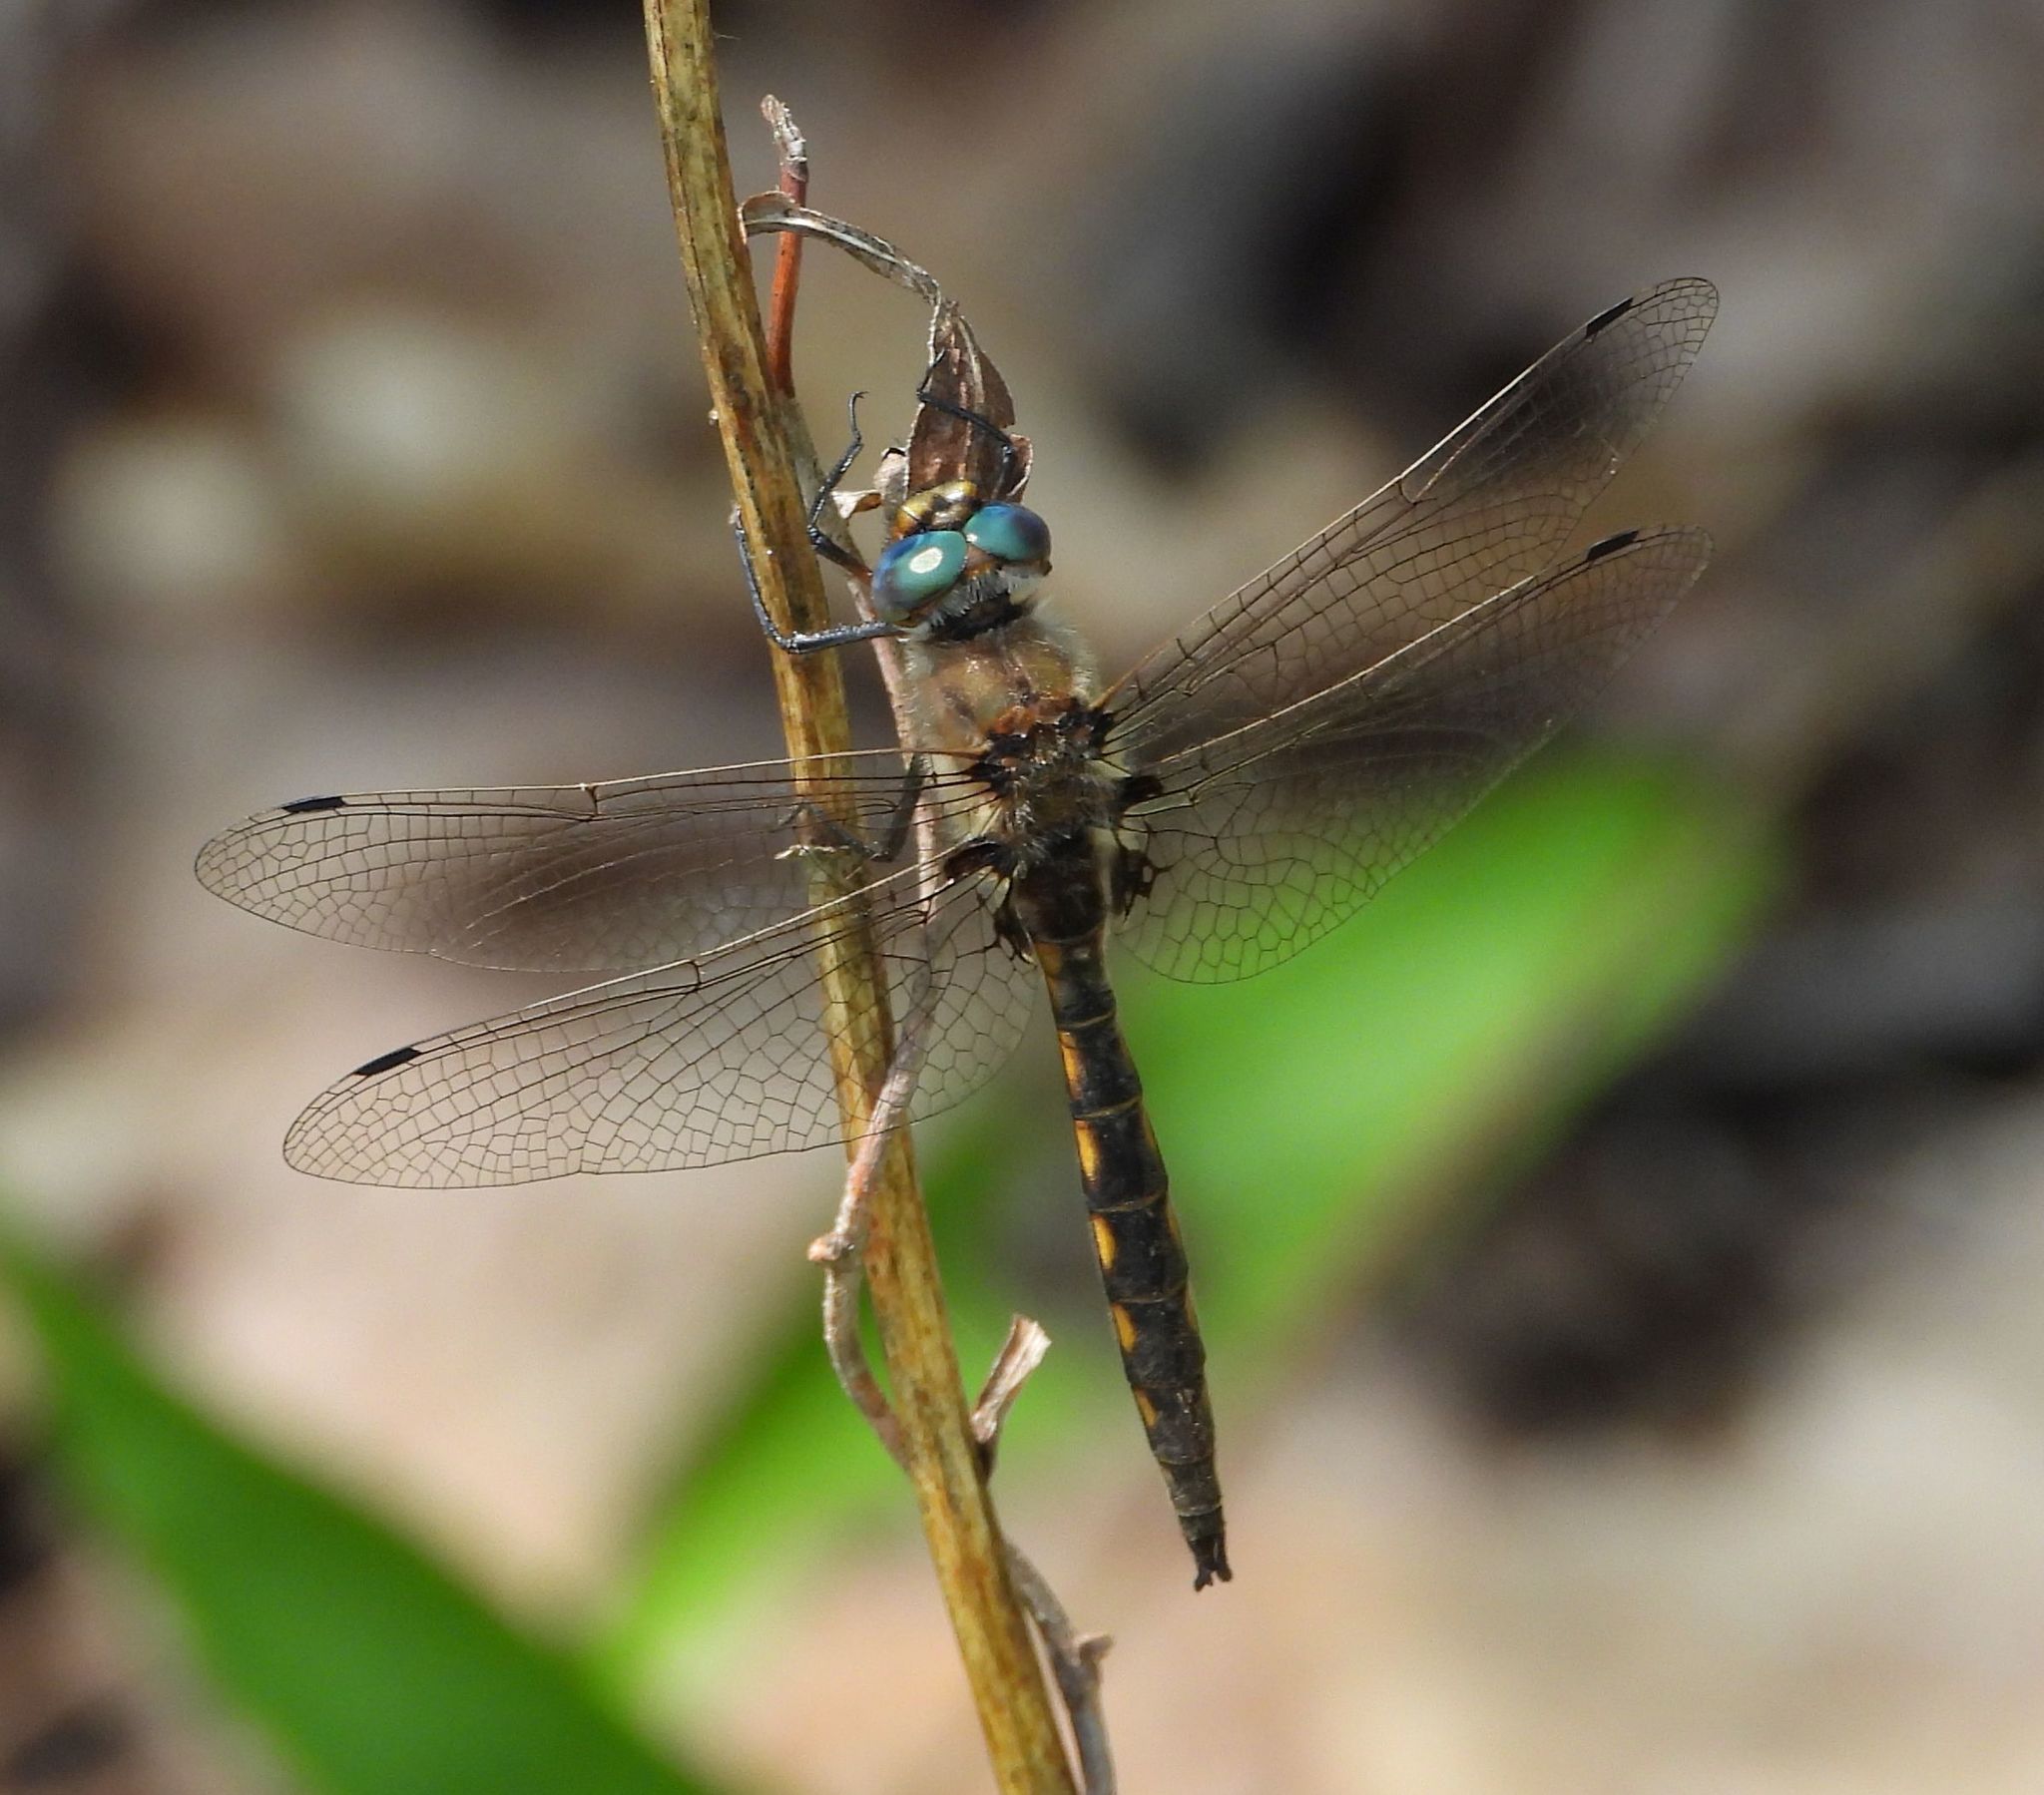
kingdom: Animalia
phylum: Arthropoda
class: Insecta
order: Odonata
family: Corduliidae
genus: Epitheca
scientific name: Epitheca canis
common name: Beaverpond baskettail
